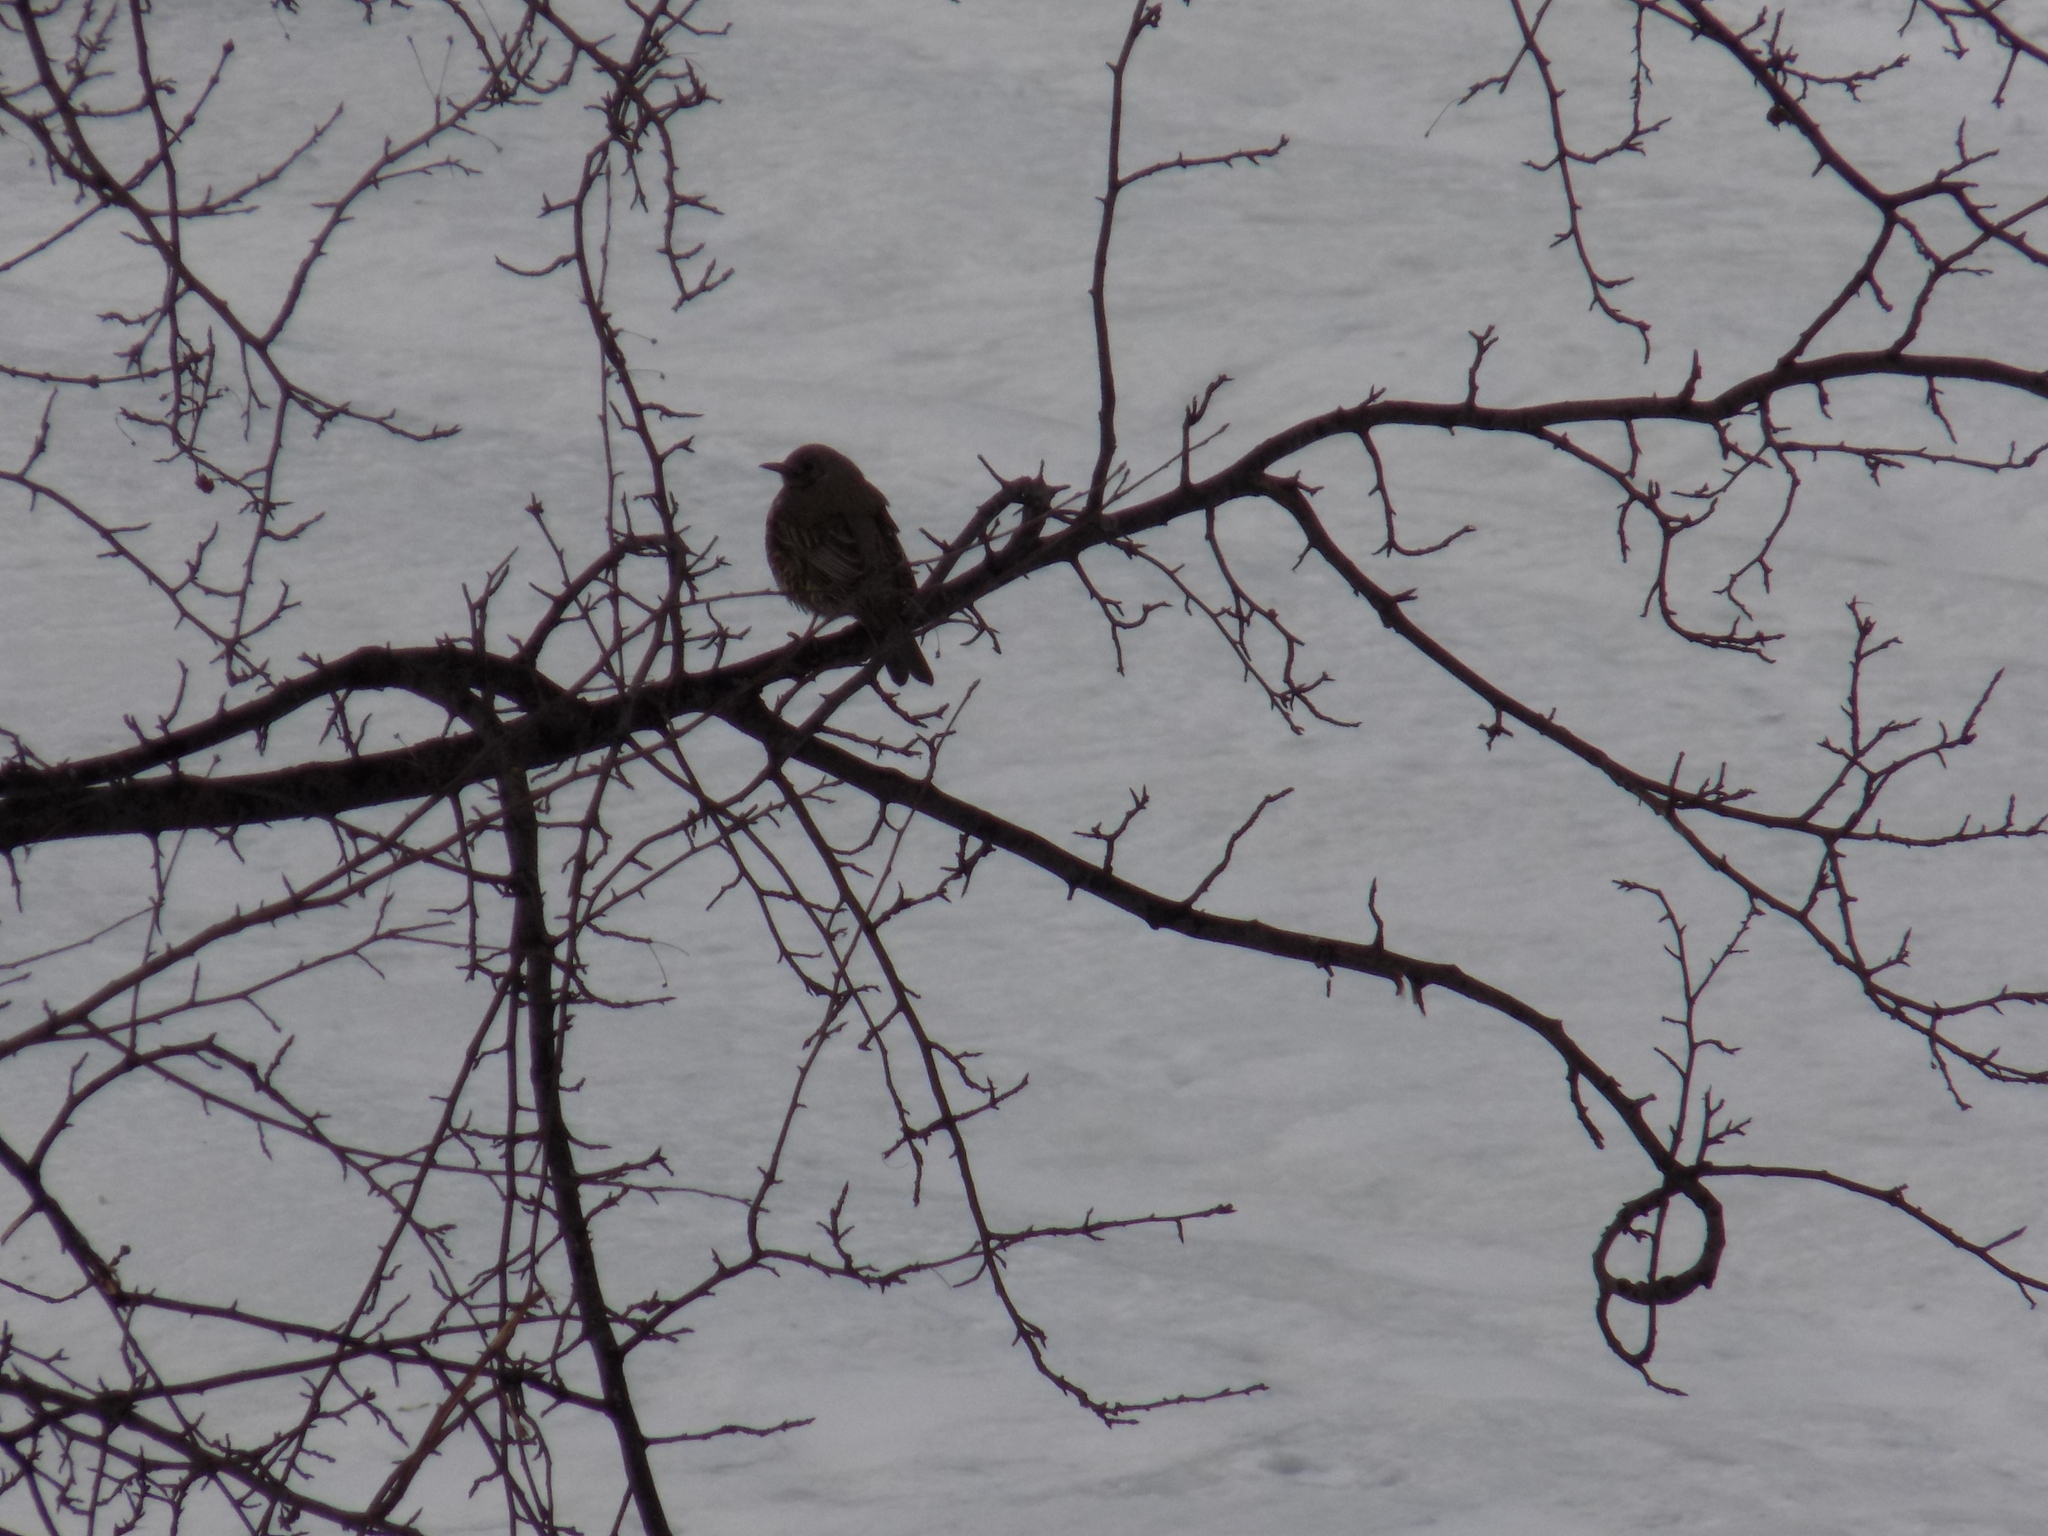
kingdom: Animalia
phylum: Chordata
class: Aves
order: Passeriformes
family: Turdidae
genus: Turdus
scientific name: Turdus viscivorus
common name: Mistle thrush
